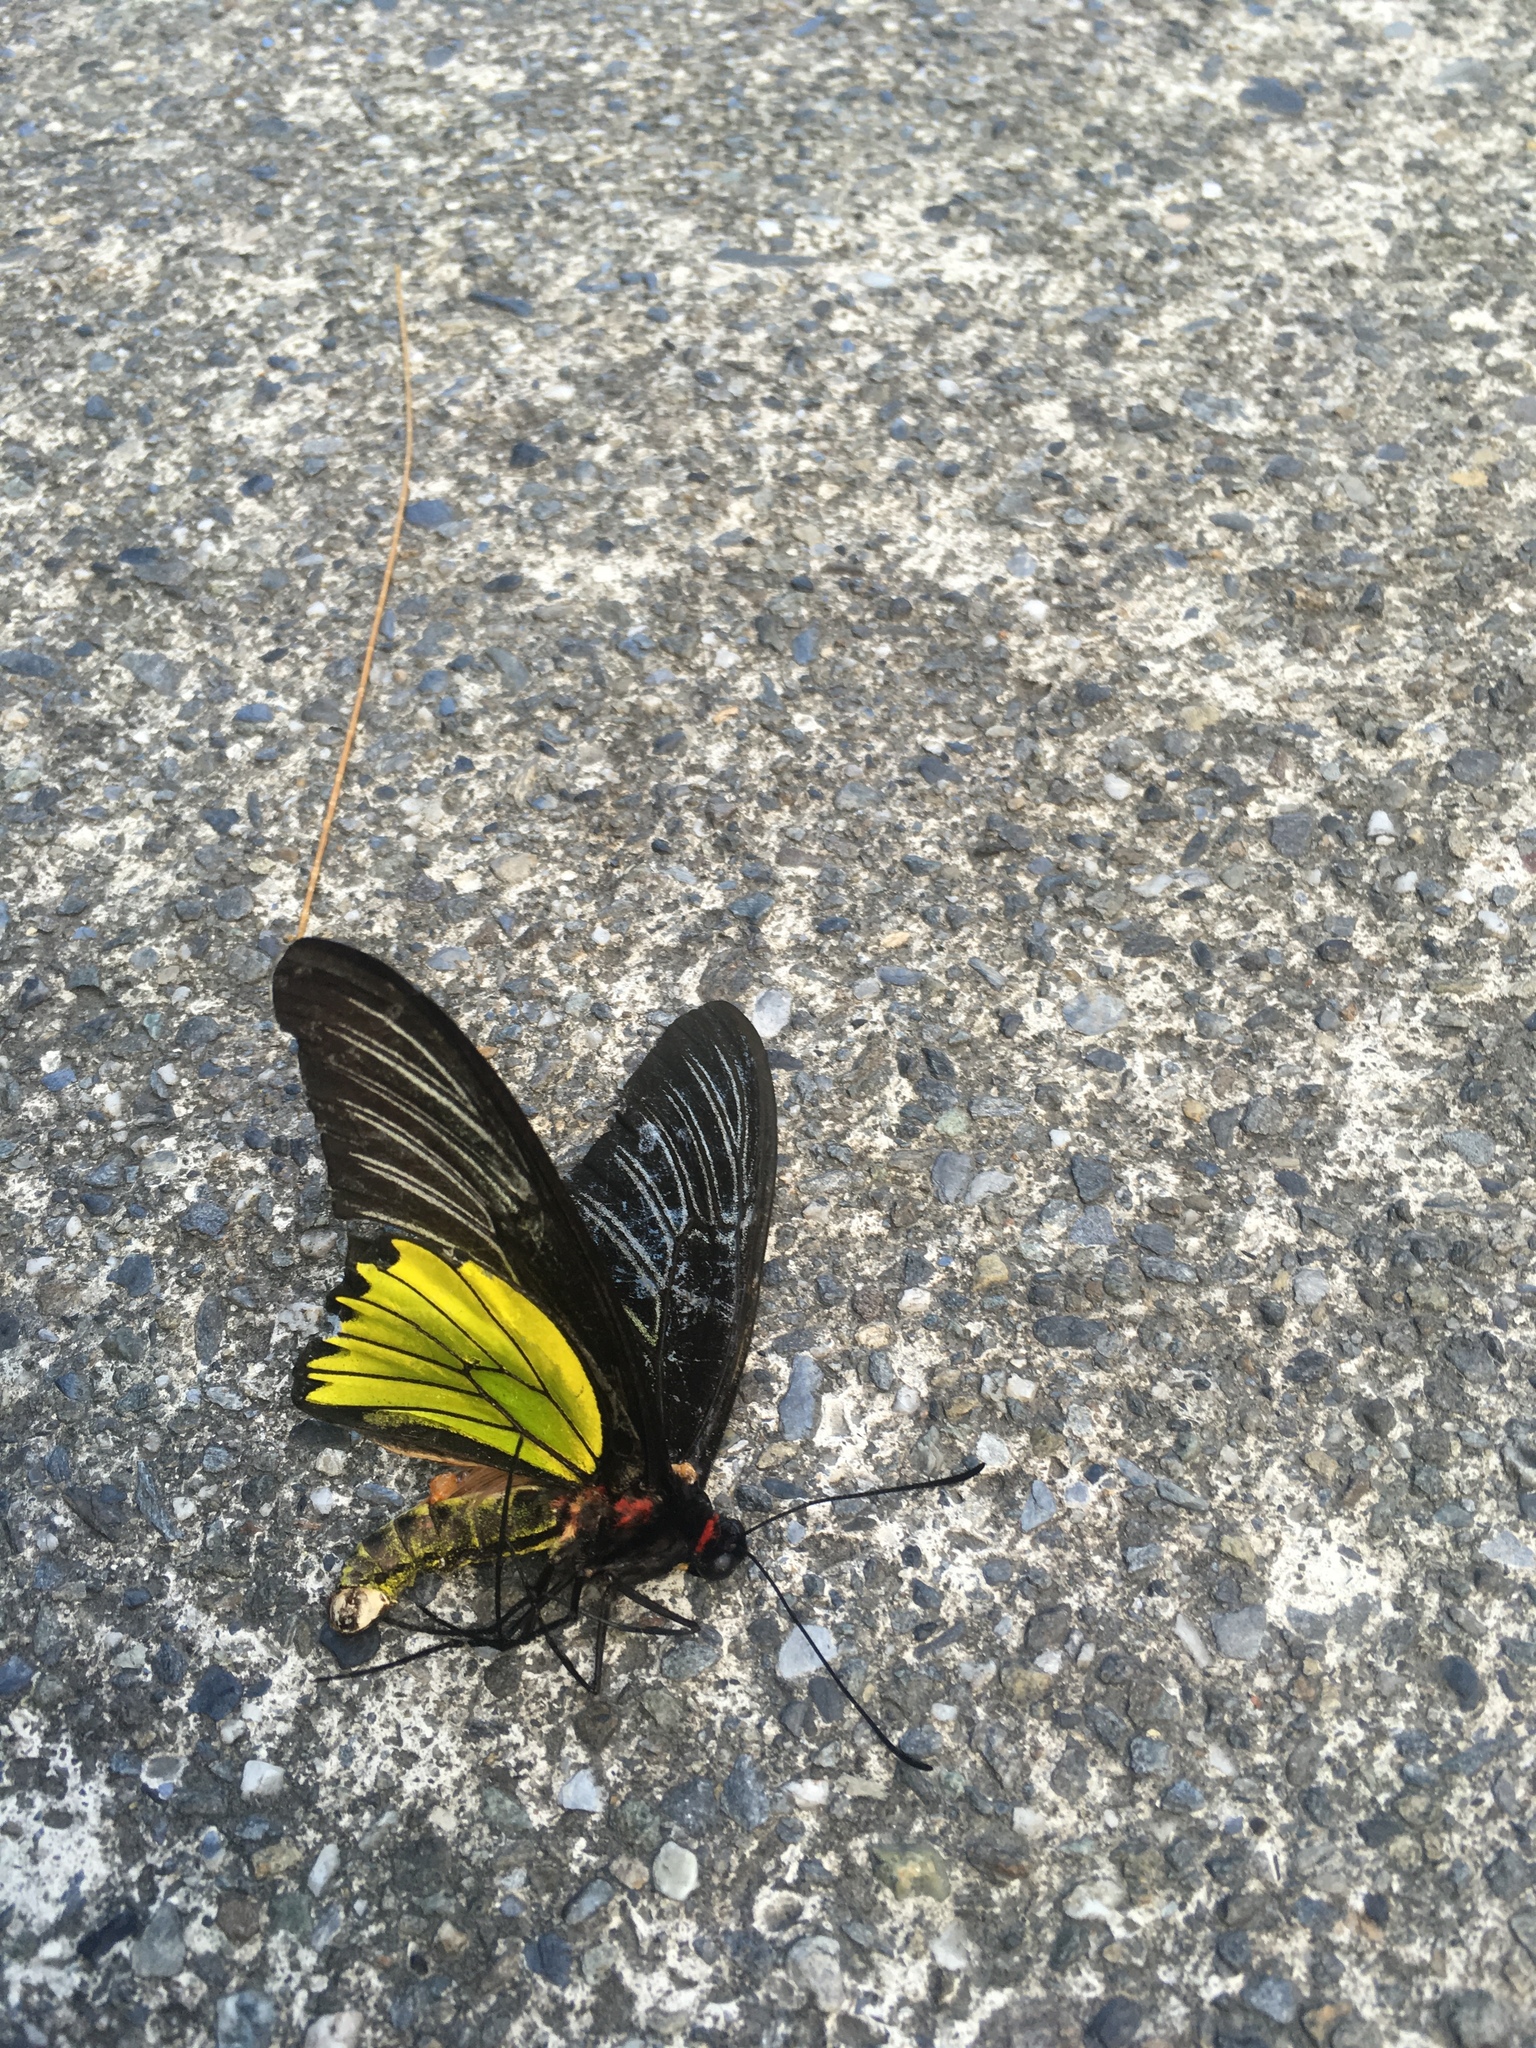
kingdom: Animalia
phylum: Arthropoda
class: Insecta
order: Lepidoptera
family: Papilionidae
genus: Troides
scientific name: Troides magellanus
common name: Magellan birdwing
